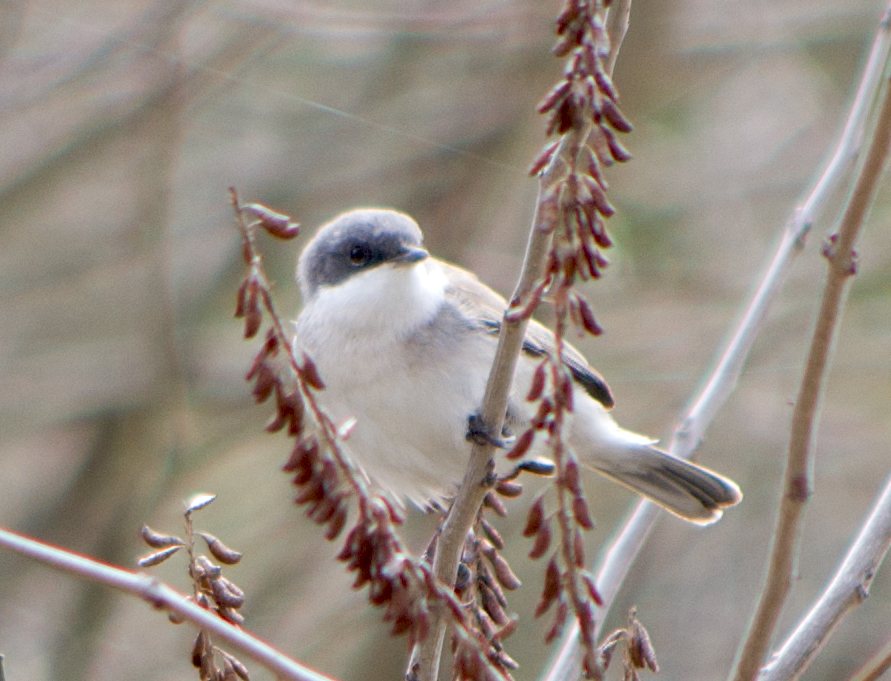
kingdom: Animalia
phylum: Chordata
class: Aves
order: Passeriformes
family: Sylviidae
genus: Sylvia
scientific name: Sylvia curruca
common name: Lesser whitethroat
